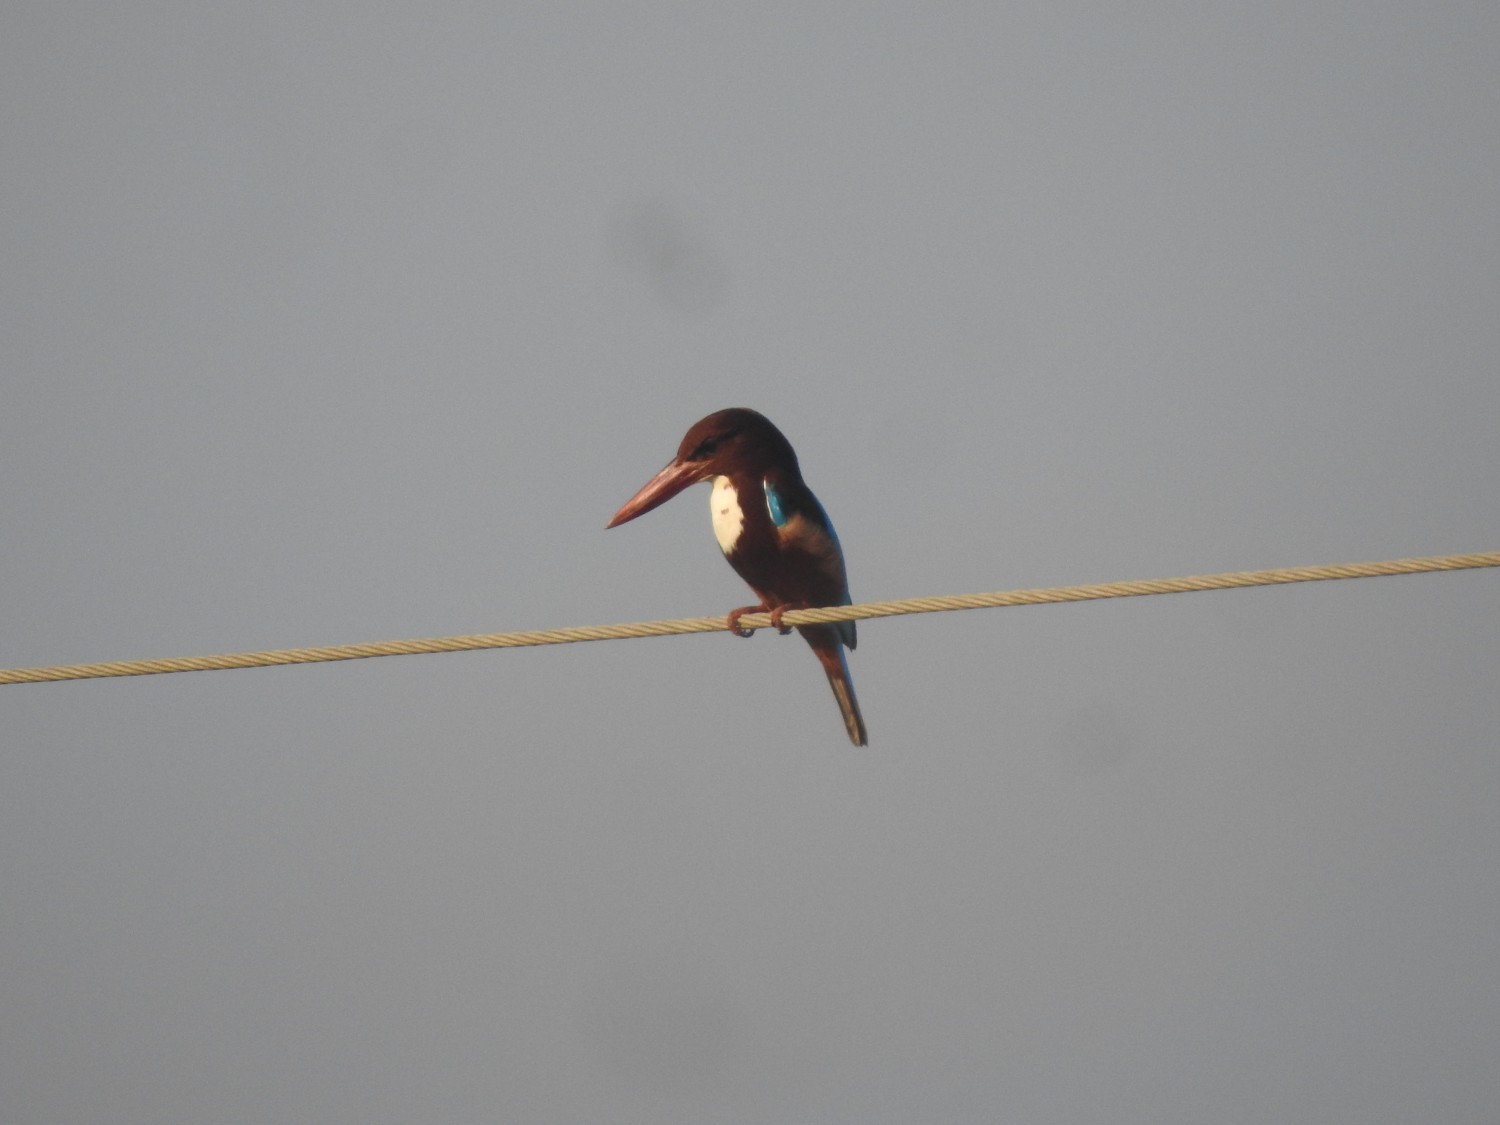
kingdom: Animalia
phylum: Chordata
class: Aves
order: Coraciiformes
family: Alcedinidae
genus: Halcyon
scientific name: Halcyon smyrnensis
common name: White-throated kingfisher
